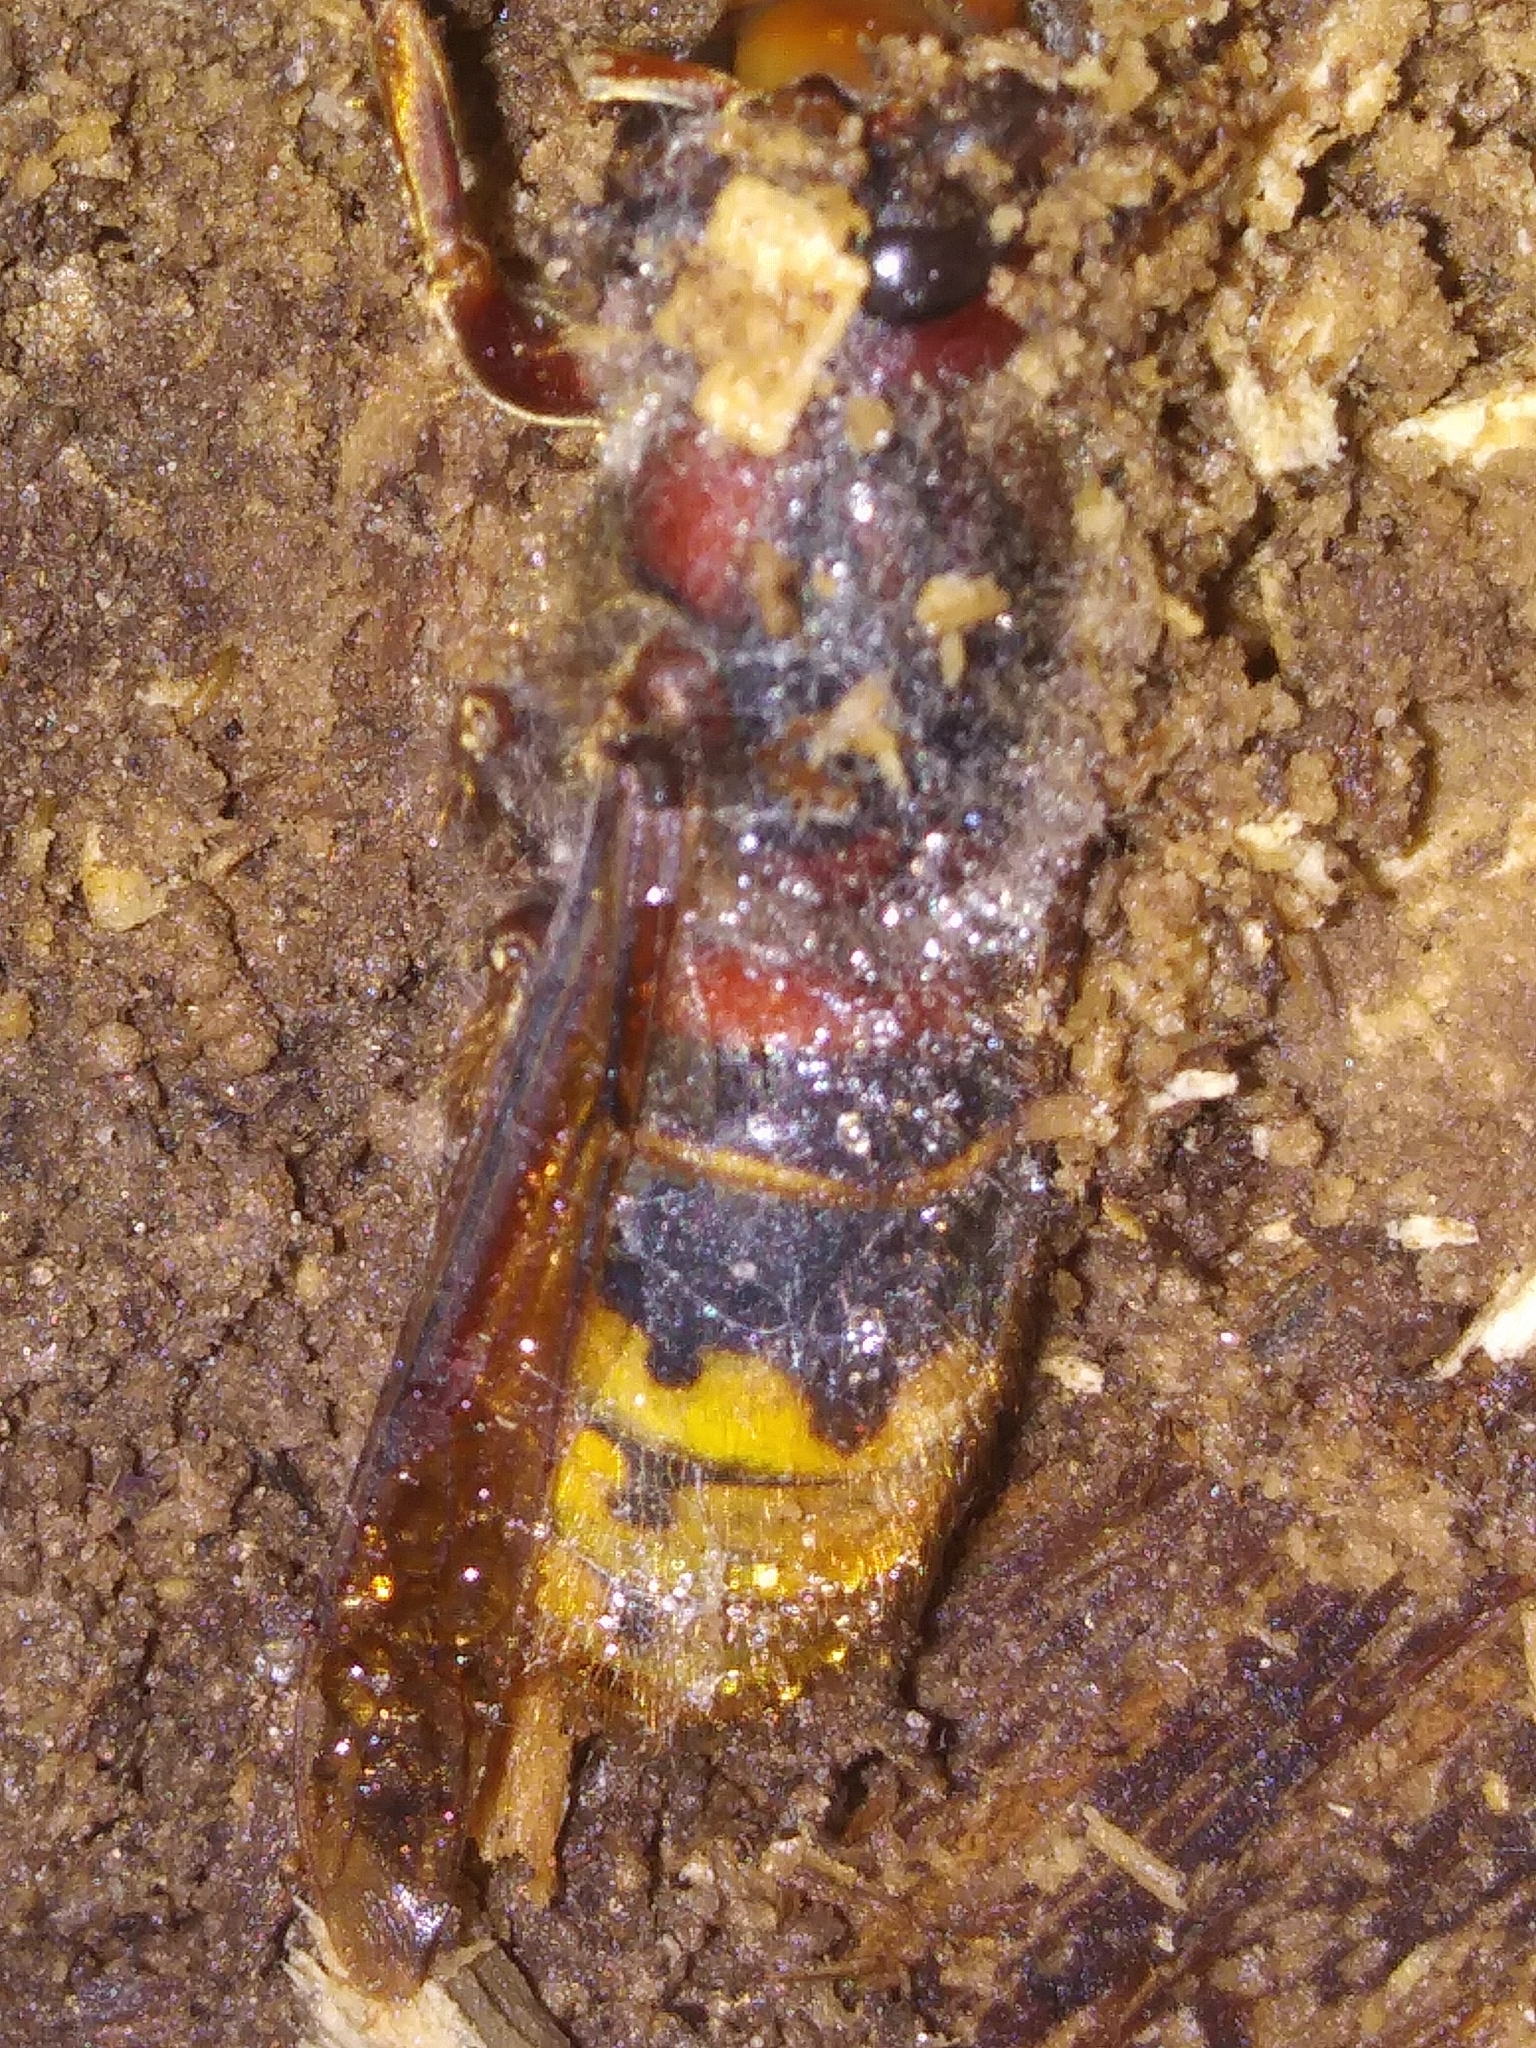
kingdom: Animalia
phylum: Arthropoda
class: Insecta
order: Hymenoptera
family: Vespidae
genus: Vespa
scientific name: Vespa crabro
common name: Hornet
